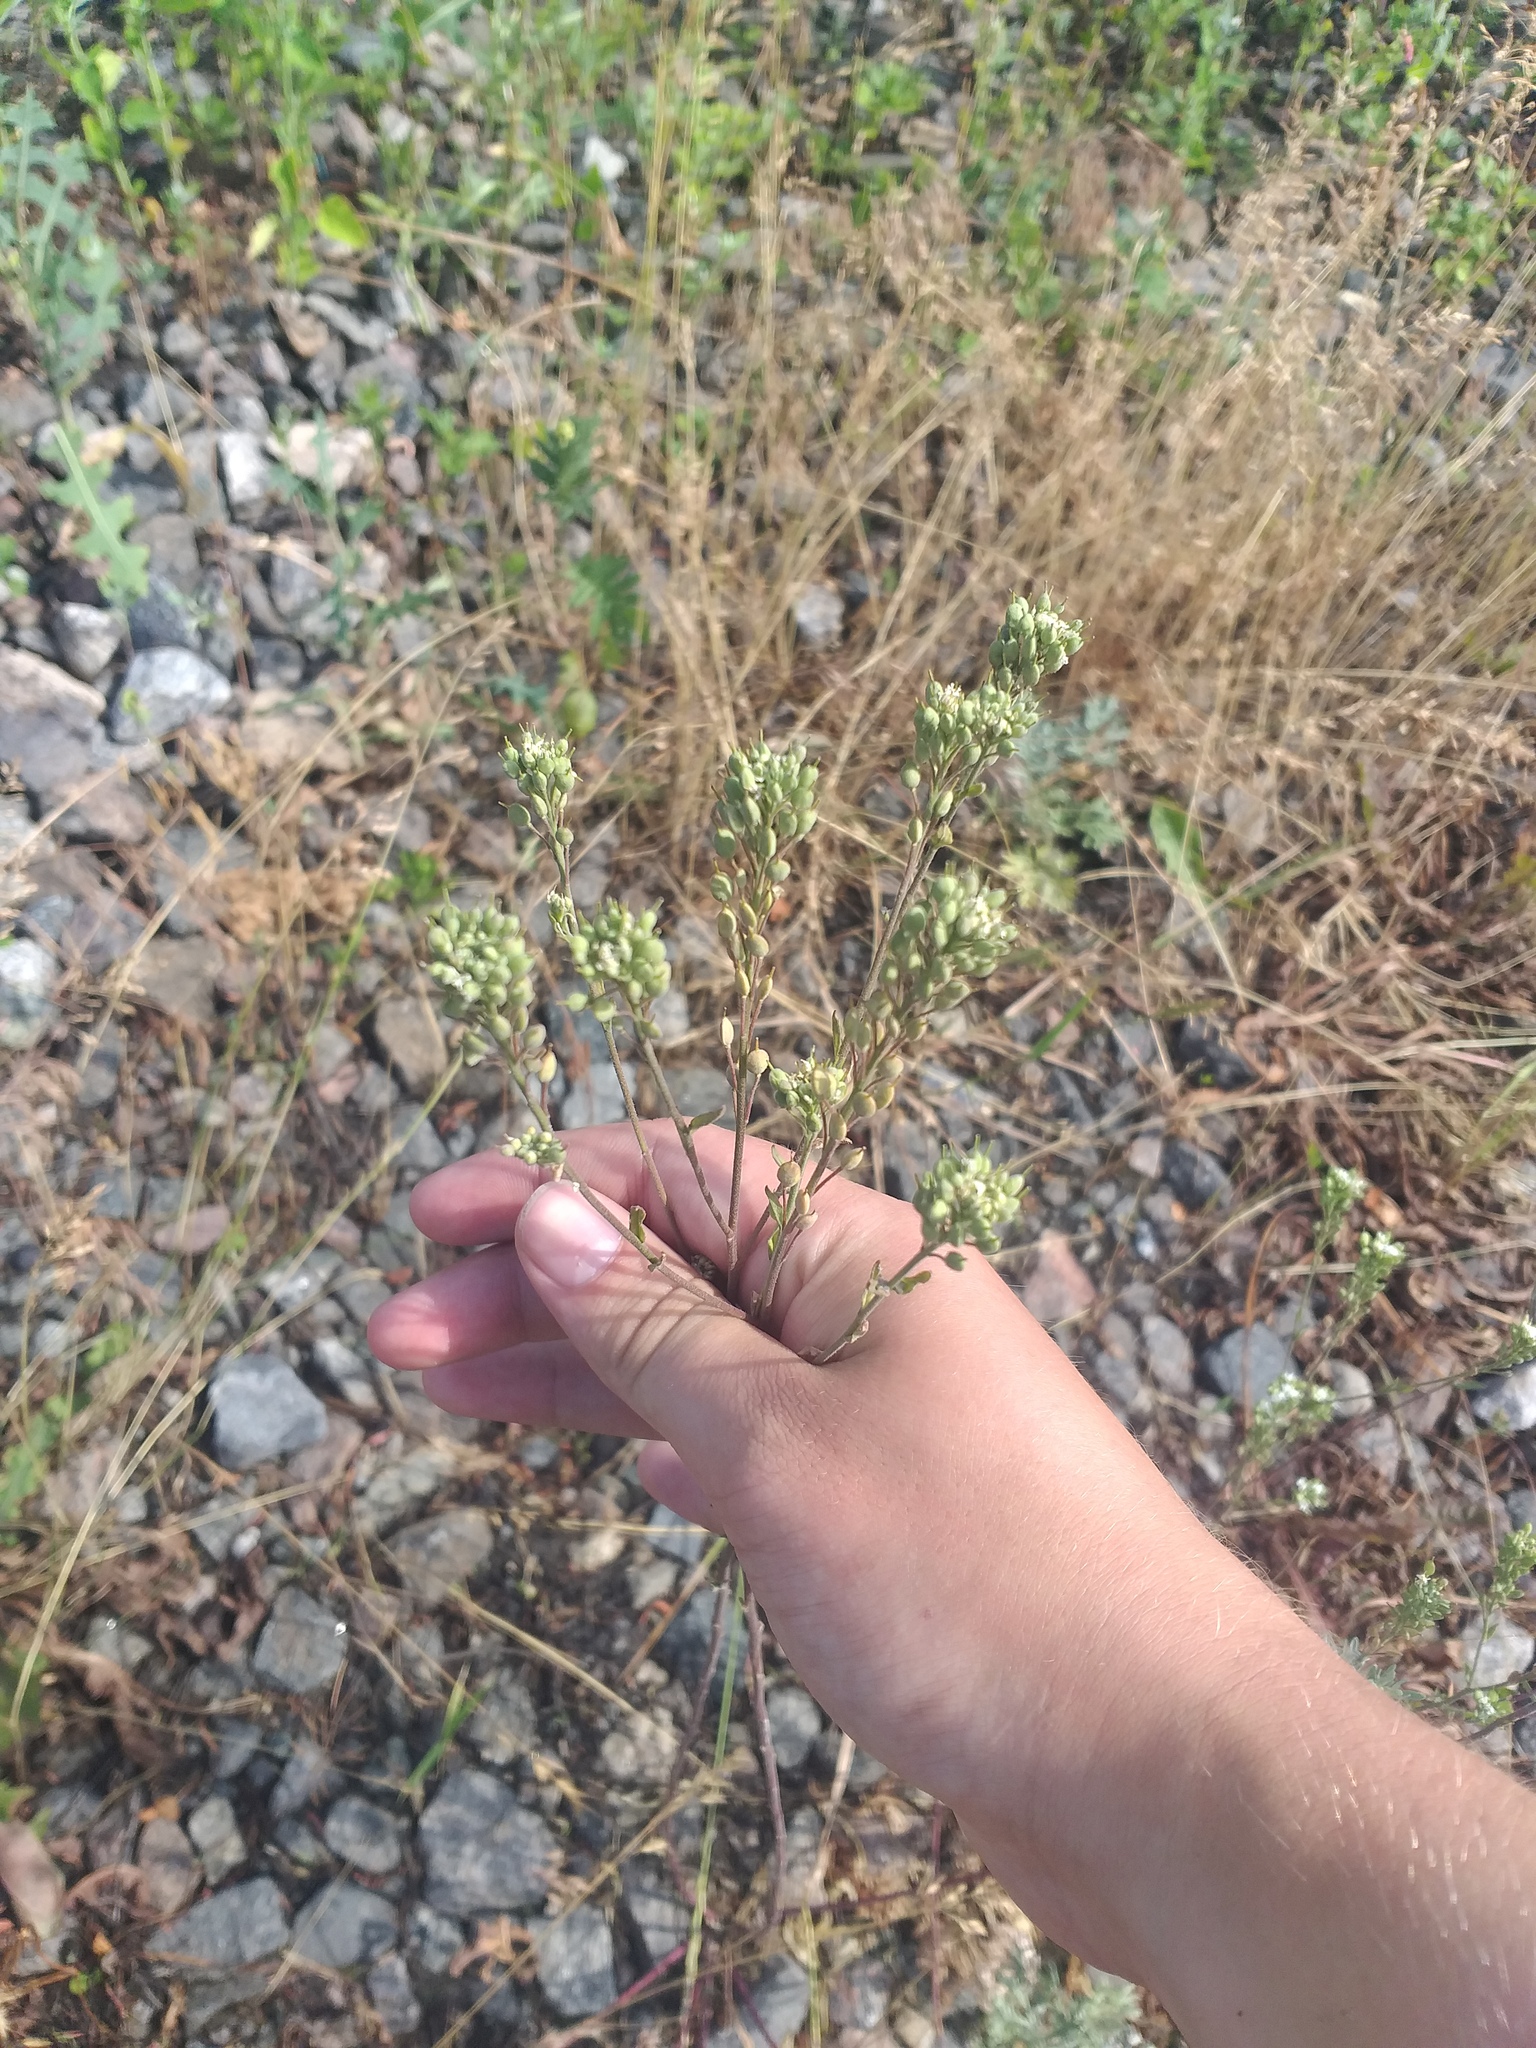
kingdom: Plantae
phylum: Tracheophyta
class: Magnoliopsida
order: Brassicales
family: Brassicaceae
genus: Berteroa
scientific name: Berteroa incana
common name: Hoary alison
